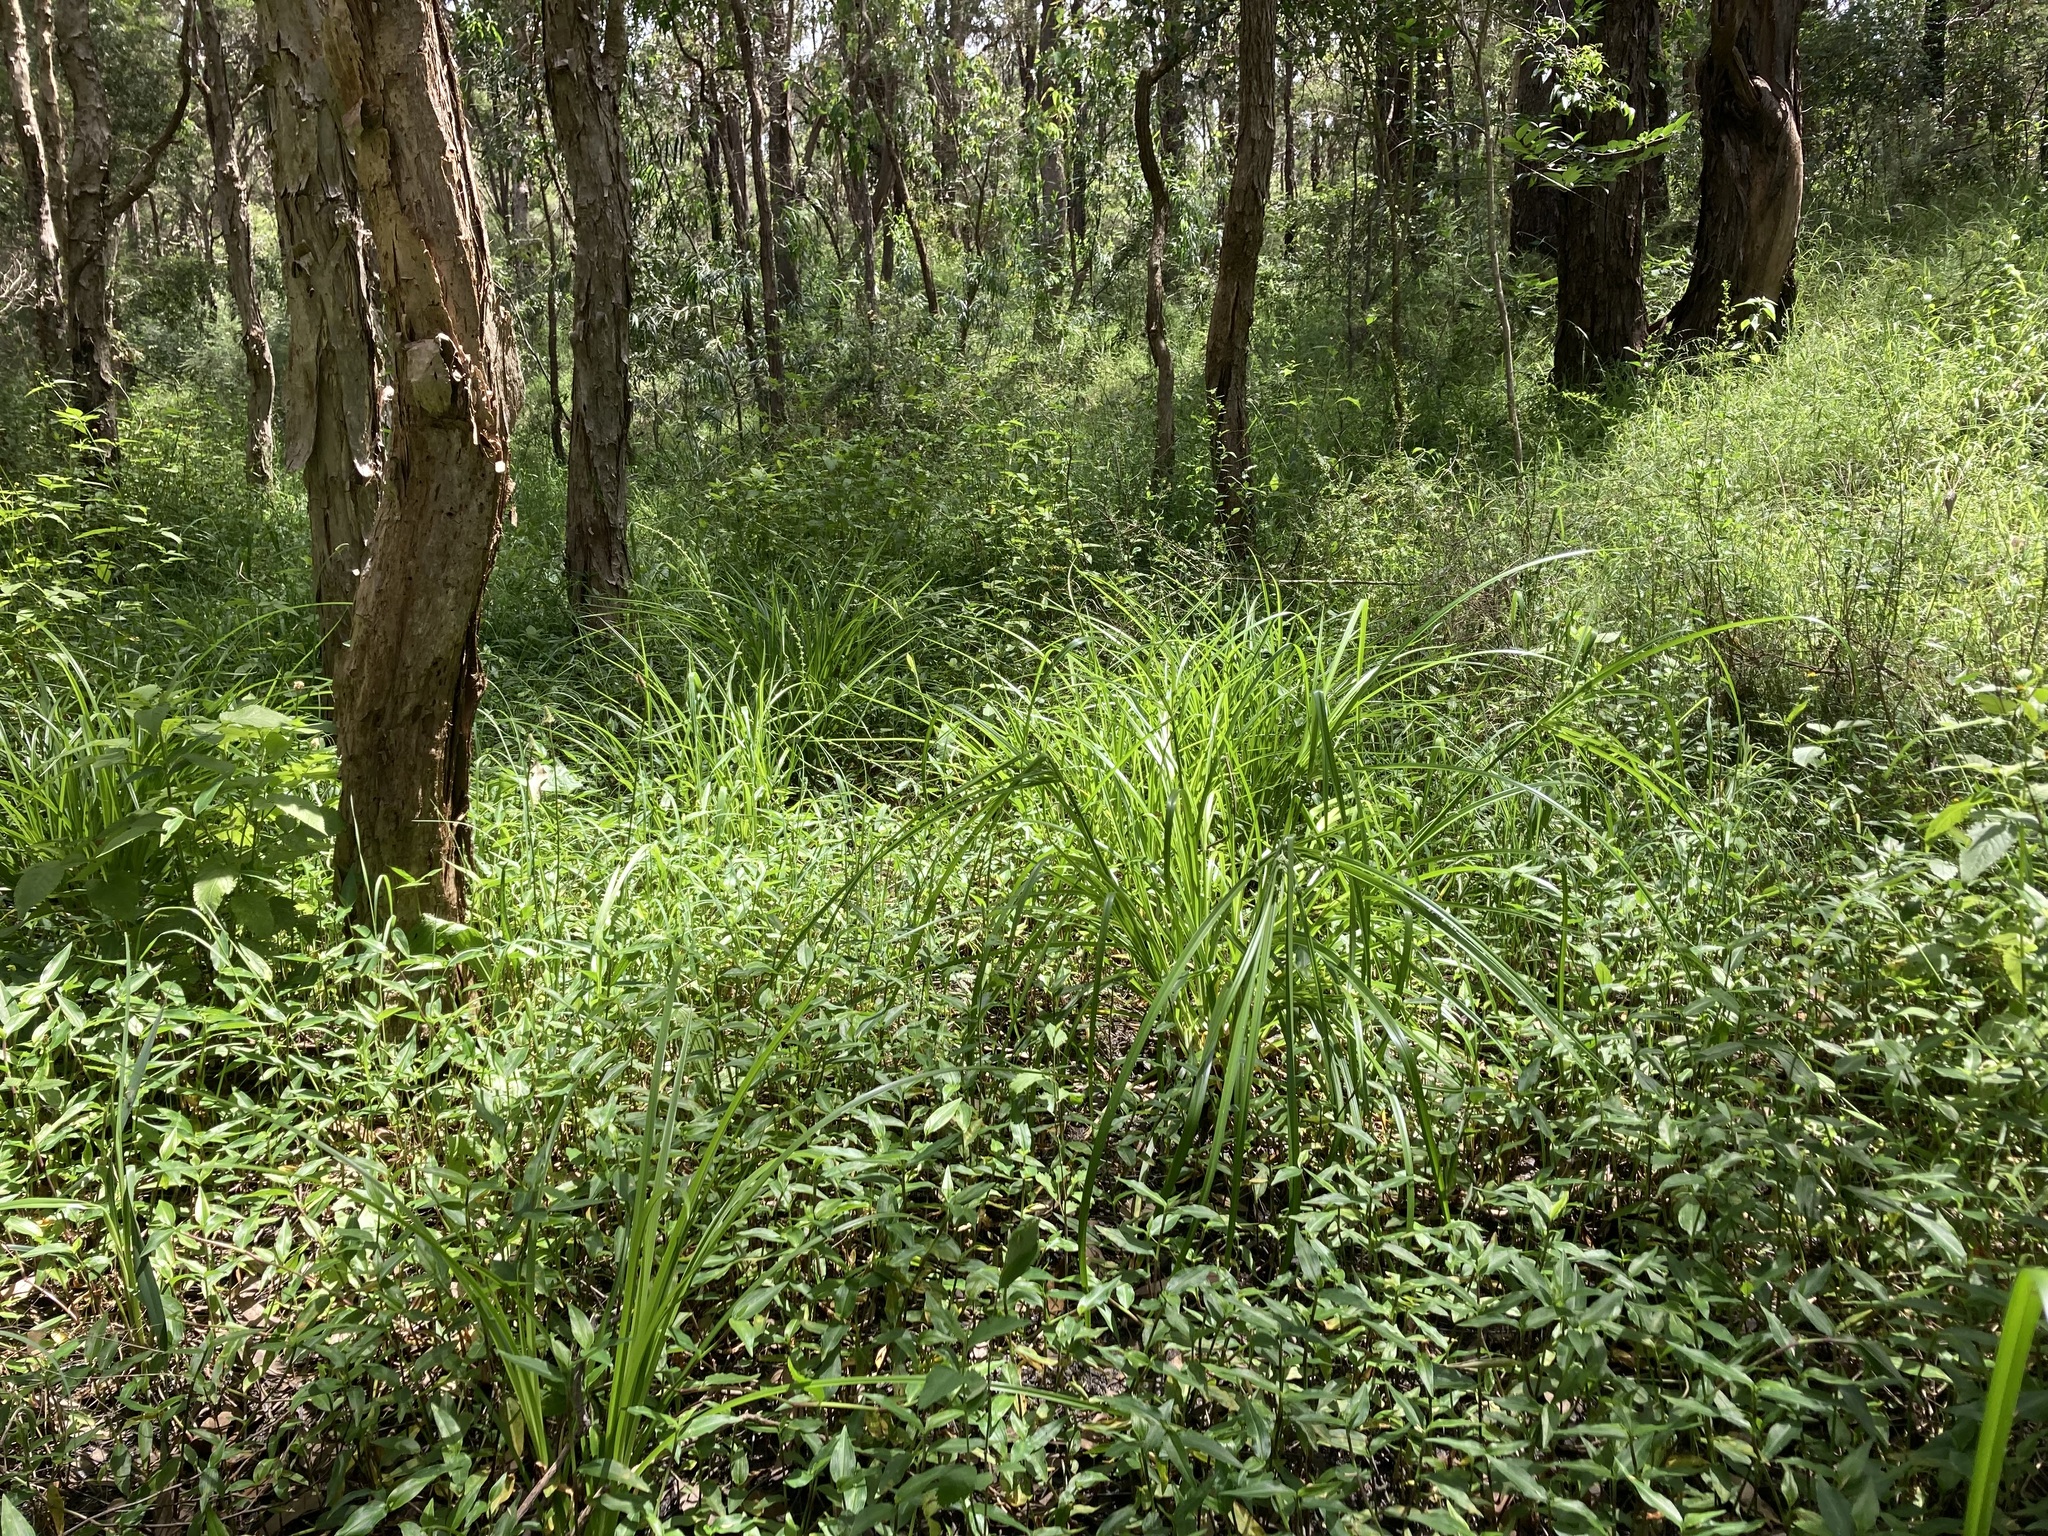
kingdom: Plantae
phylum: Tracheophyta
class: Liliopsida
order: Poales
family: Cyperaceae
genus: Cyperus
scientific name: Cyperus eragrostis
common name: Tall flatsedge
